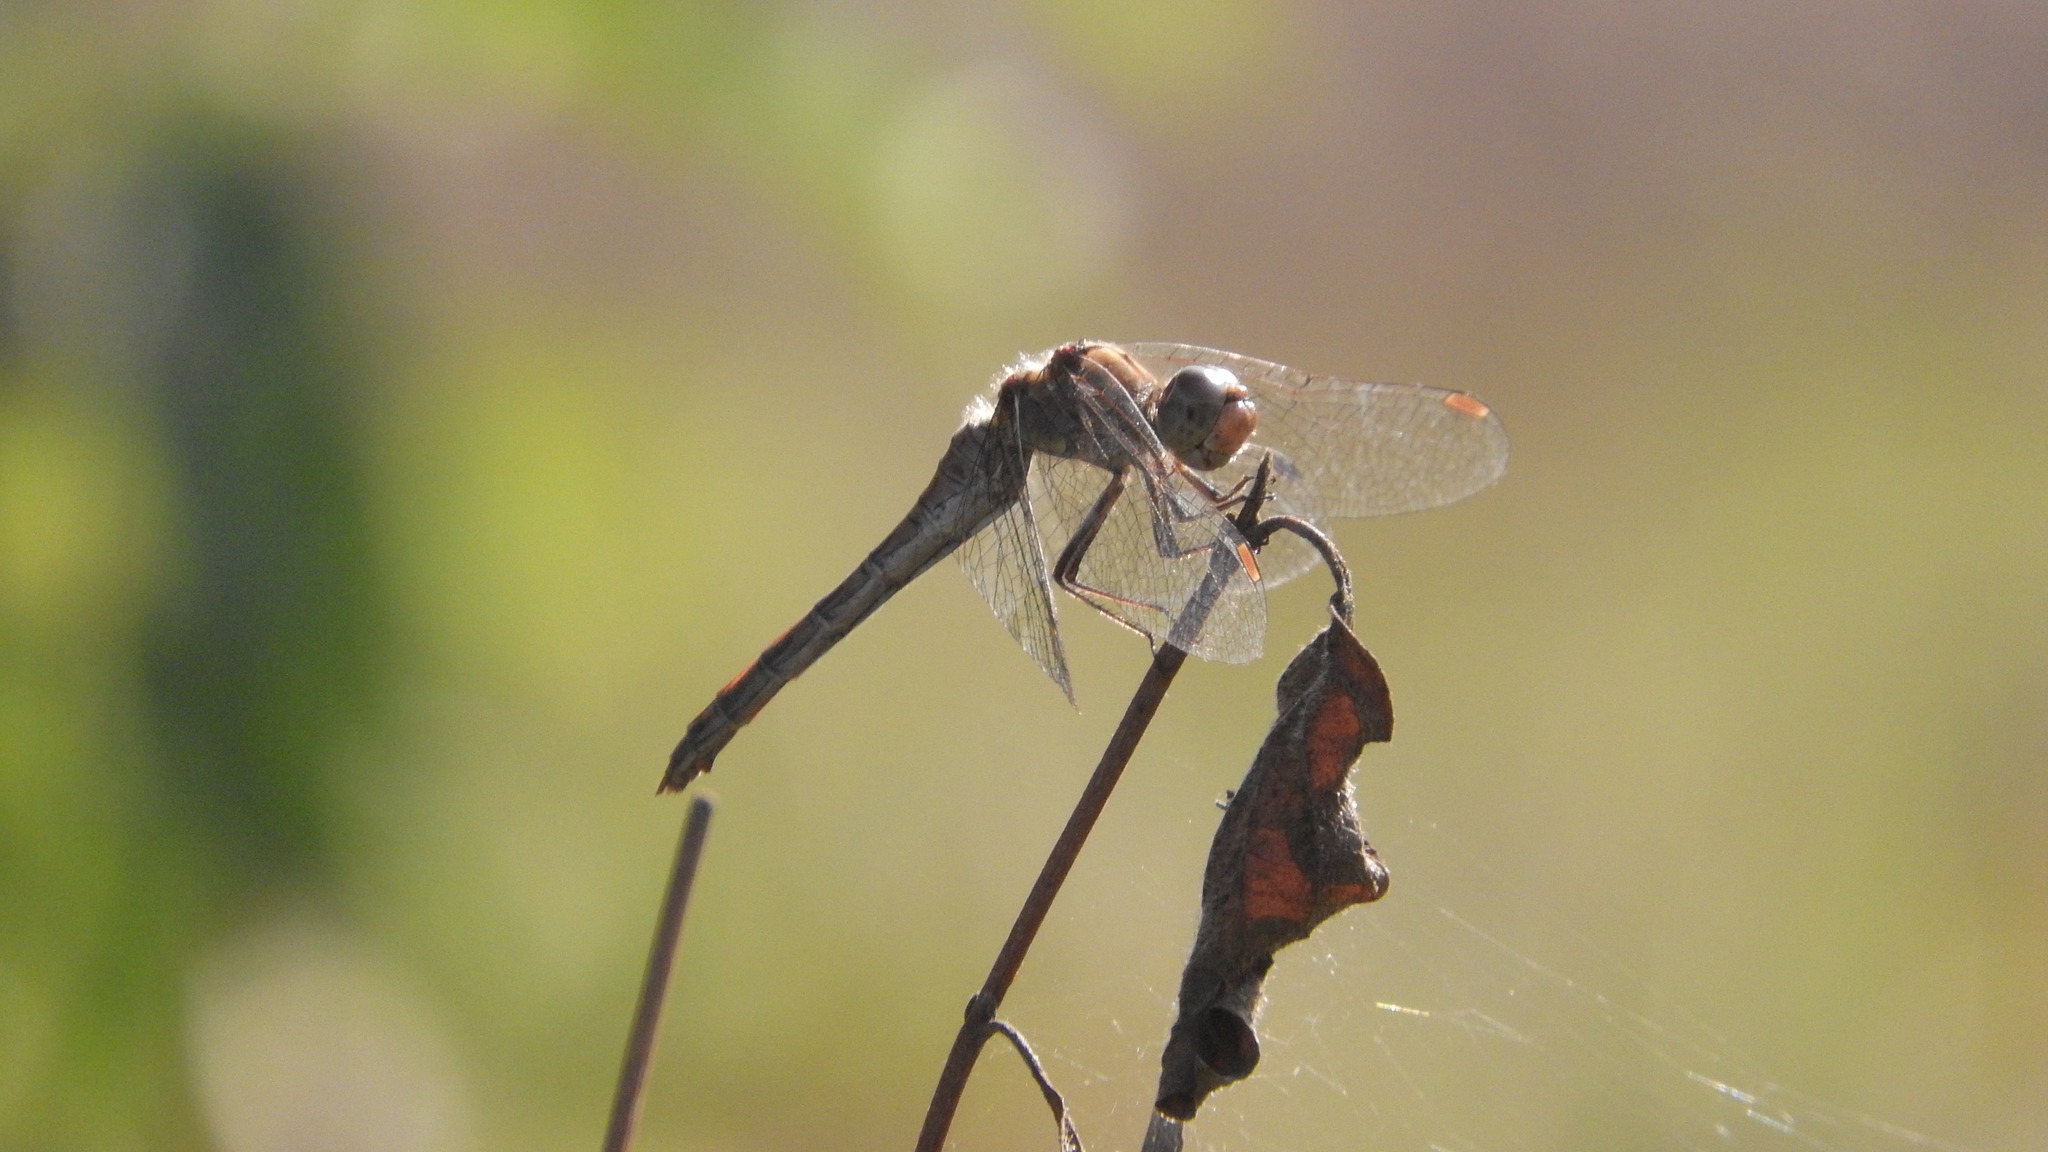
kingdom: Animalia
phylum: Arthropoda
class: Insecta
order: Odonata
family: Libellulidae
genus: Sympetrum
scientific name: Sympetrum striolatum
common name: Common darter
